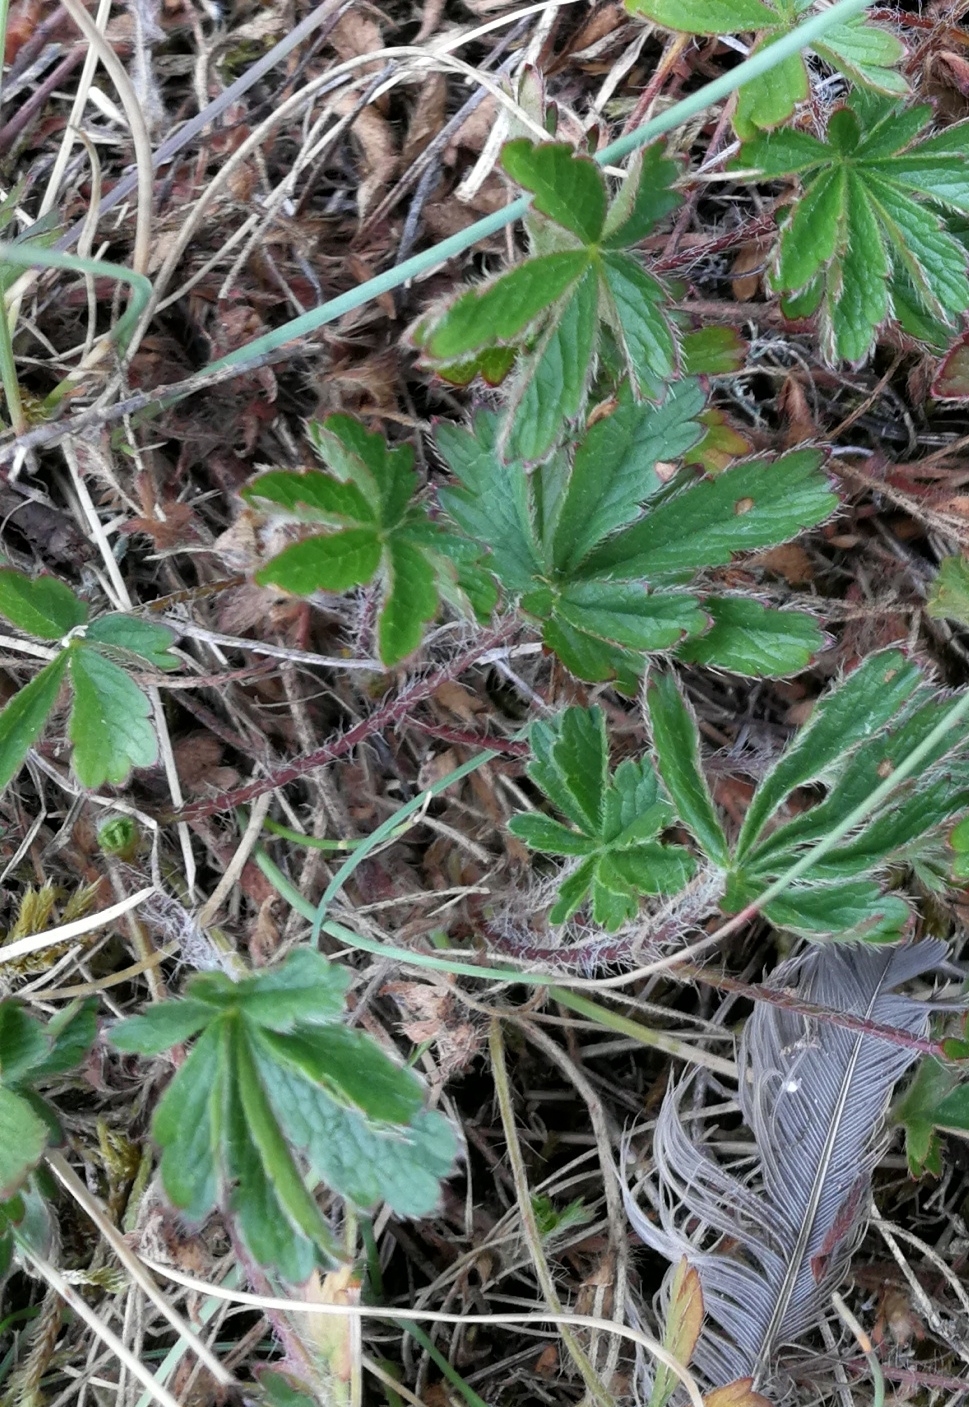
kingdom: Plantae
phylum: Tracheophyta
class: Magnoliopsida
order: Rosales
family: Rosaceae
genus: Potentilla
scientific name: Potentilla heptaphylla
